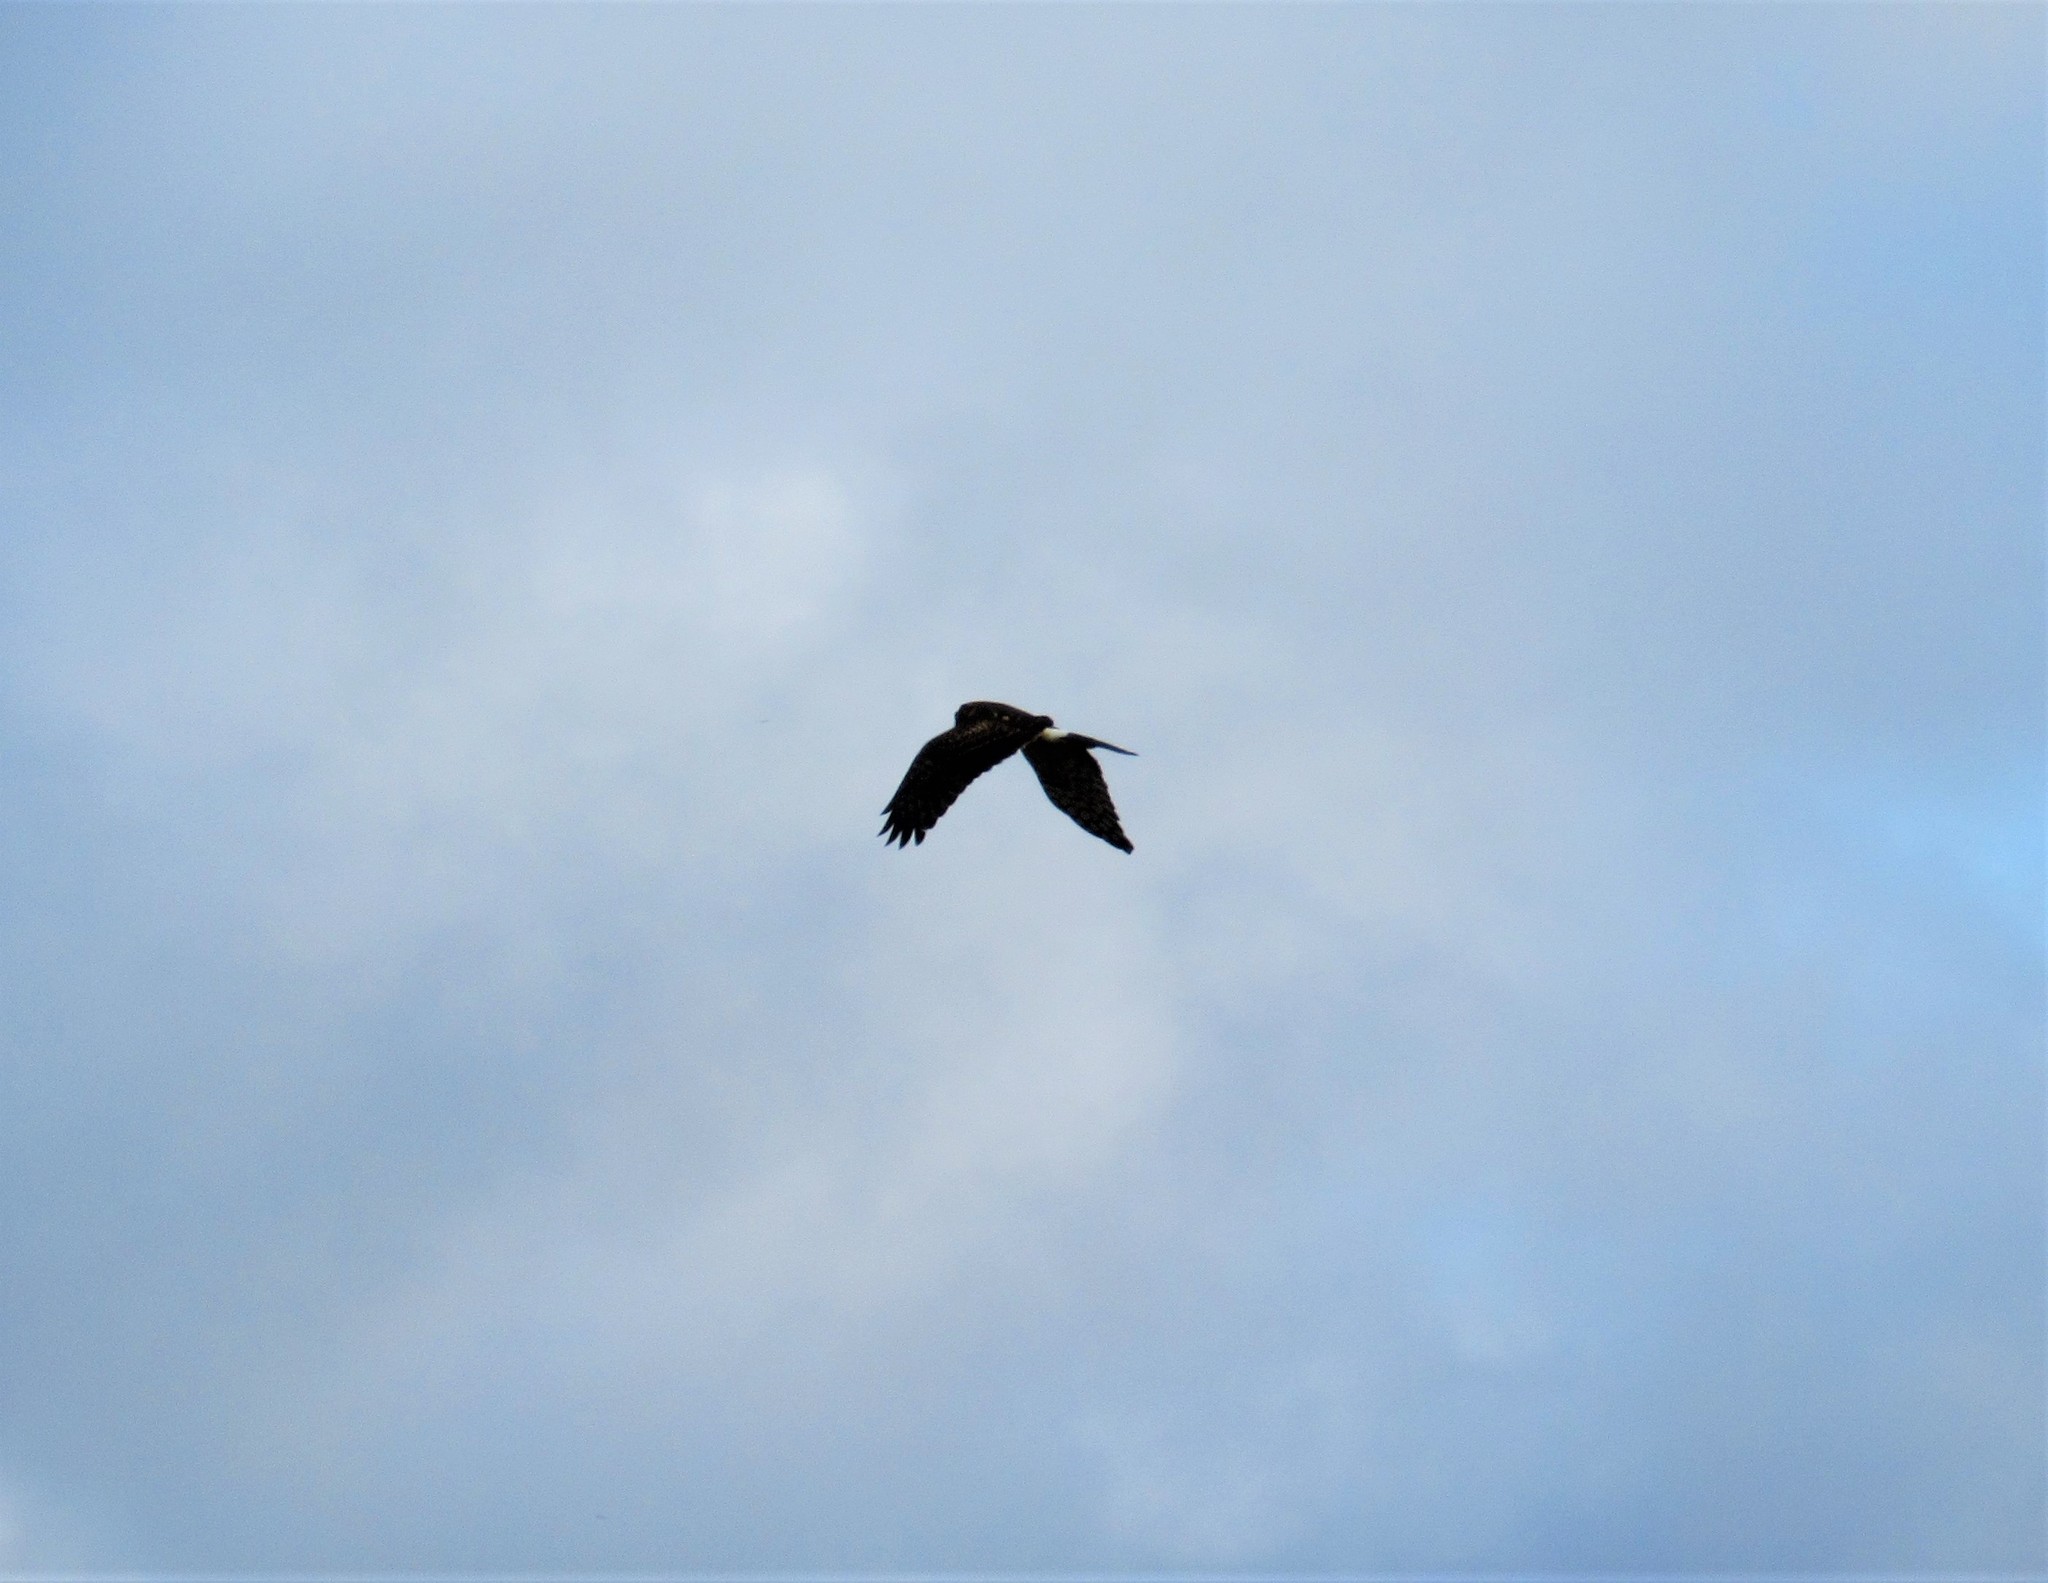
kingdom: Animalia
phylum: Chordata
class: Aves
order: Accipitriformes
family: Accipitridae
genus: Circus
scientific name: Circus cyaneus
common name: Hen harrier
